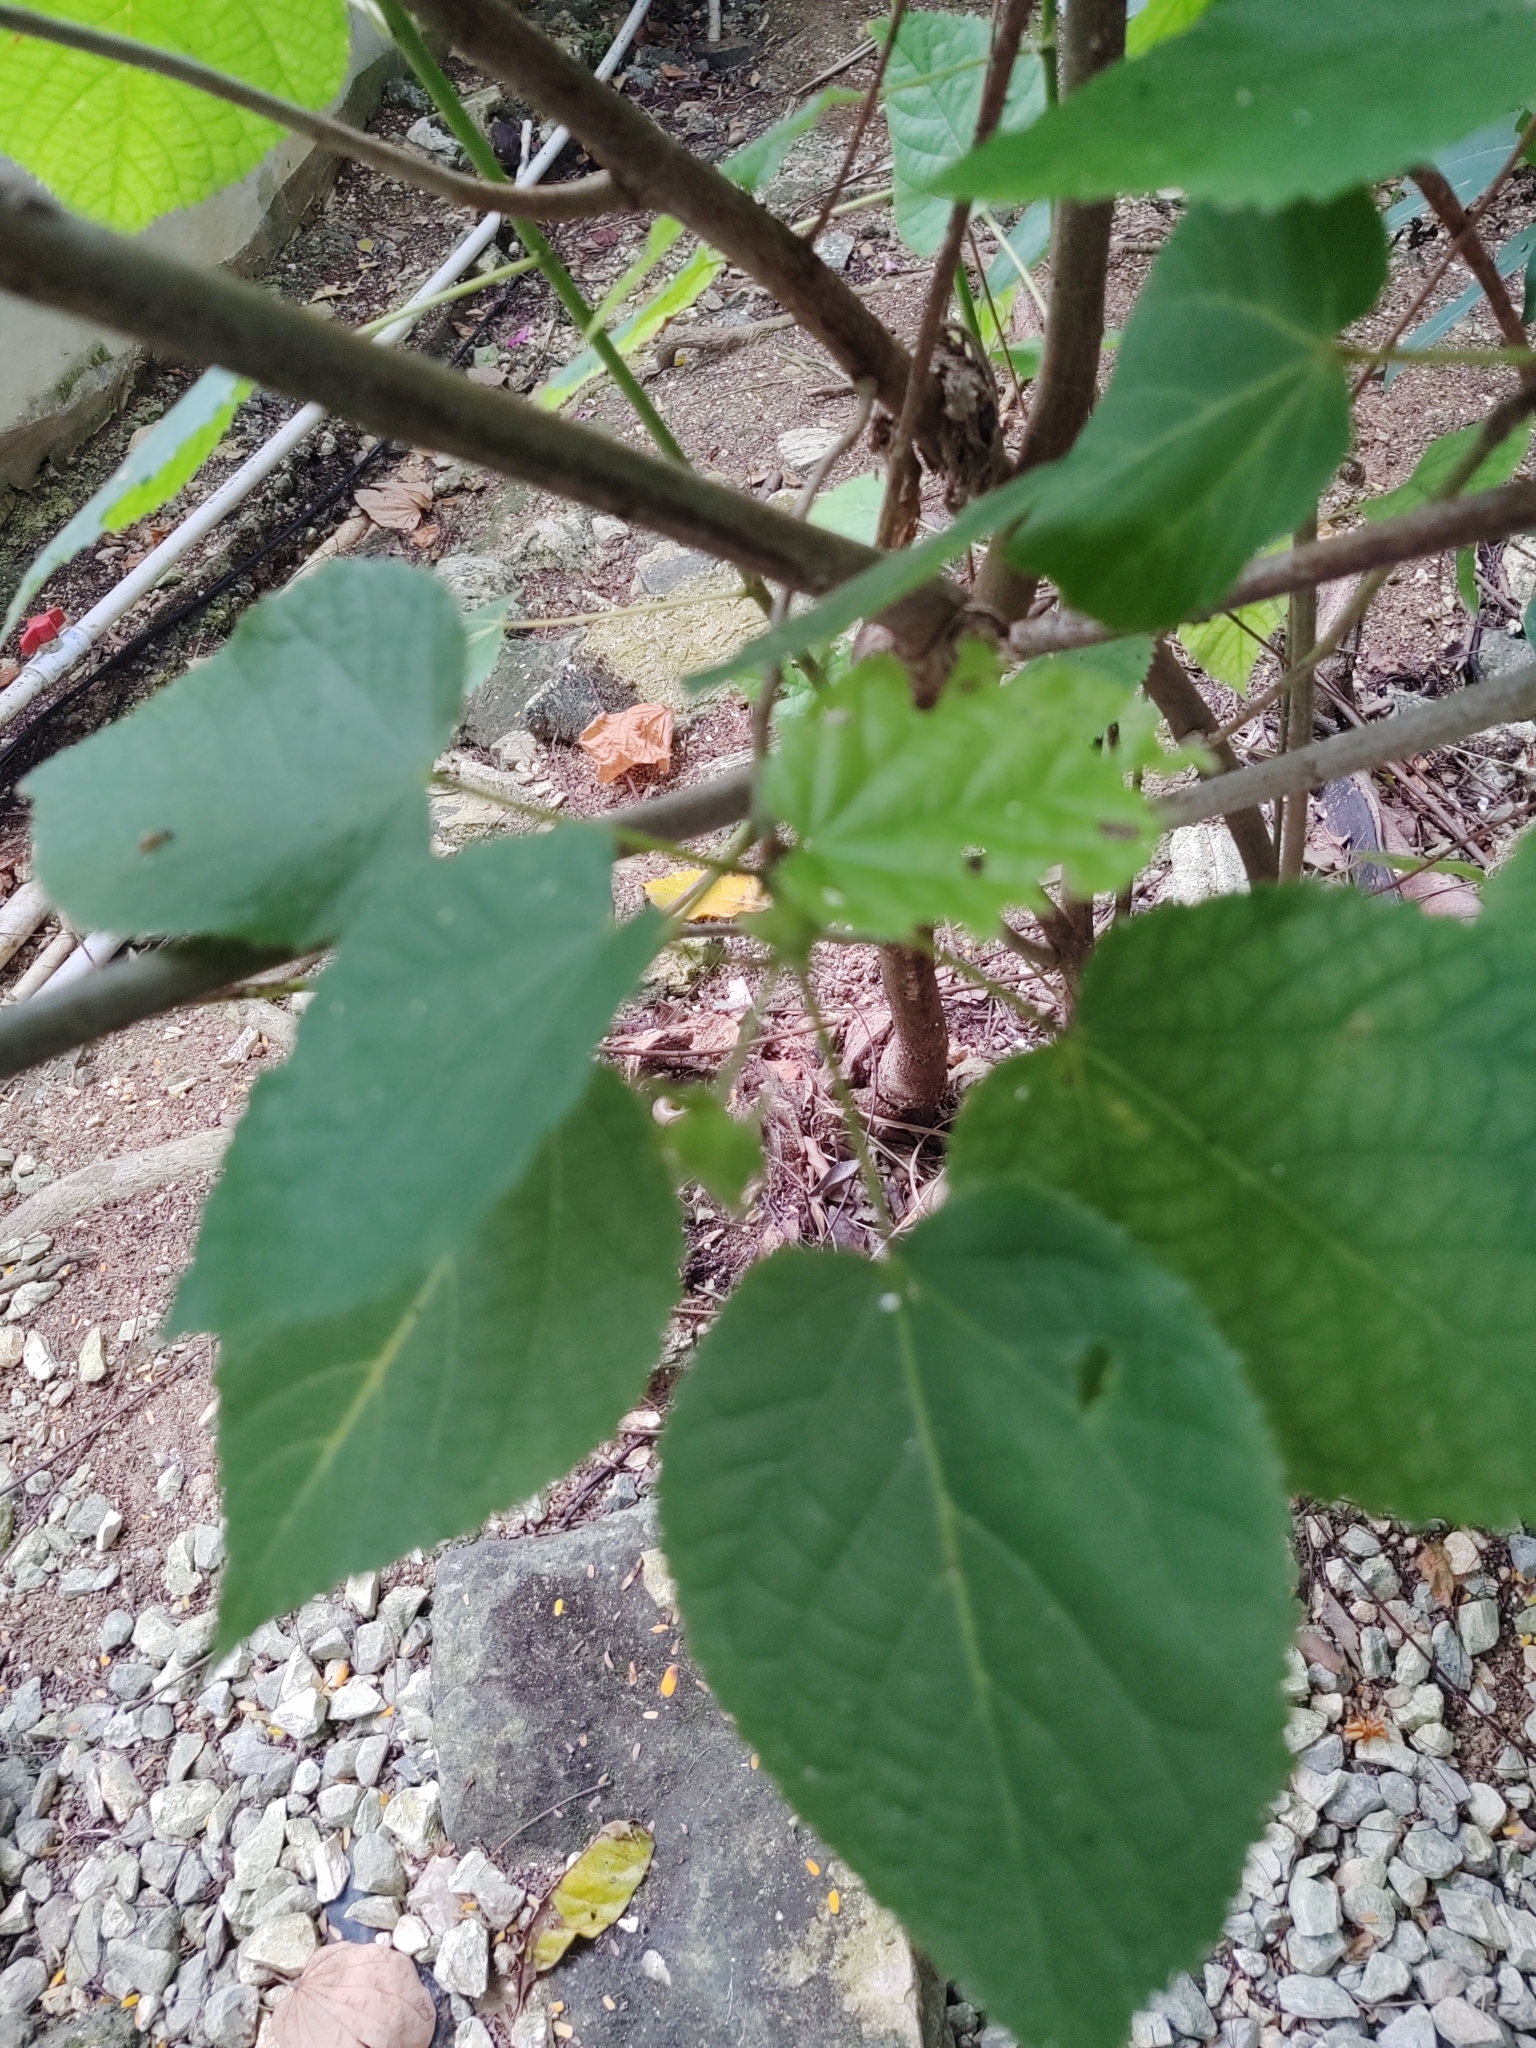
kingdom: Plantae
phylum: Tracheophyta
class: Magnoliopsida
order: Malvales
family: Malvaceae
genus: Dombeya
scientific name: Dombeya cayeuxii
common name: Pompomtree
